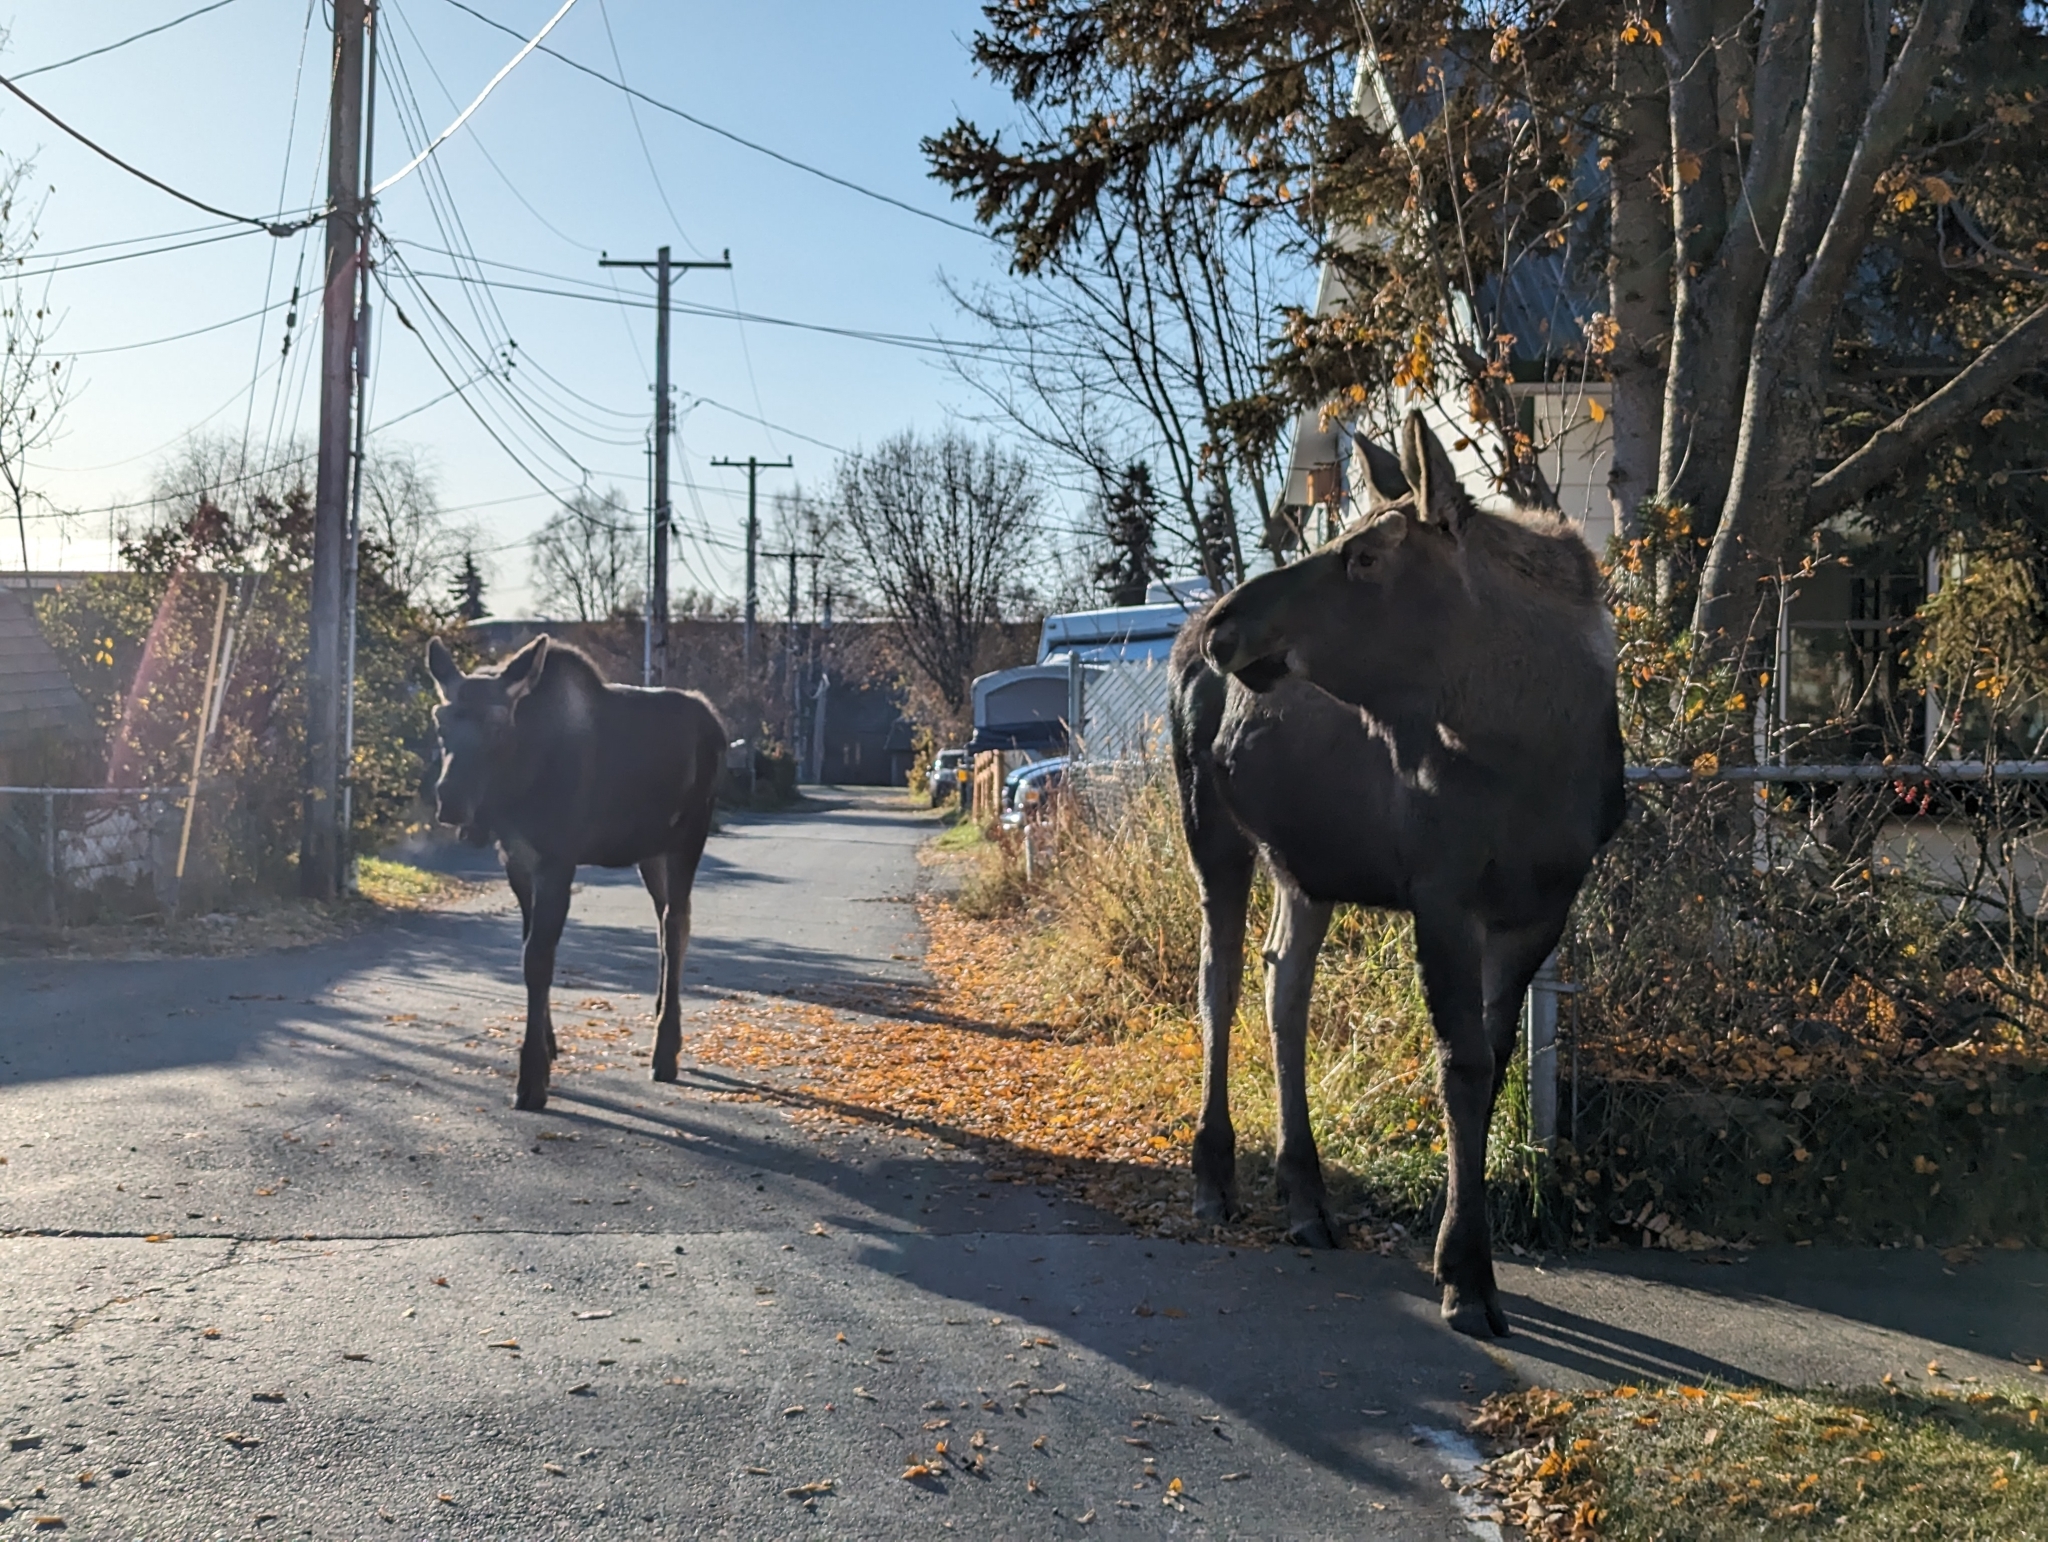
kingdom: Animalia
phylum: Chordata
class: Mammalia
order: Artiodactyla
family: Cervidae
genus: Alces
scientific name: Alces alces
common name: Moose
